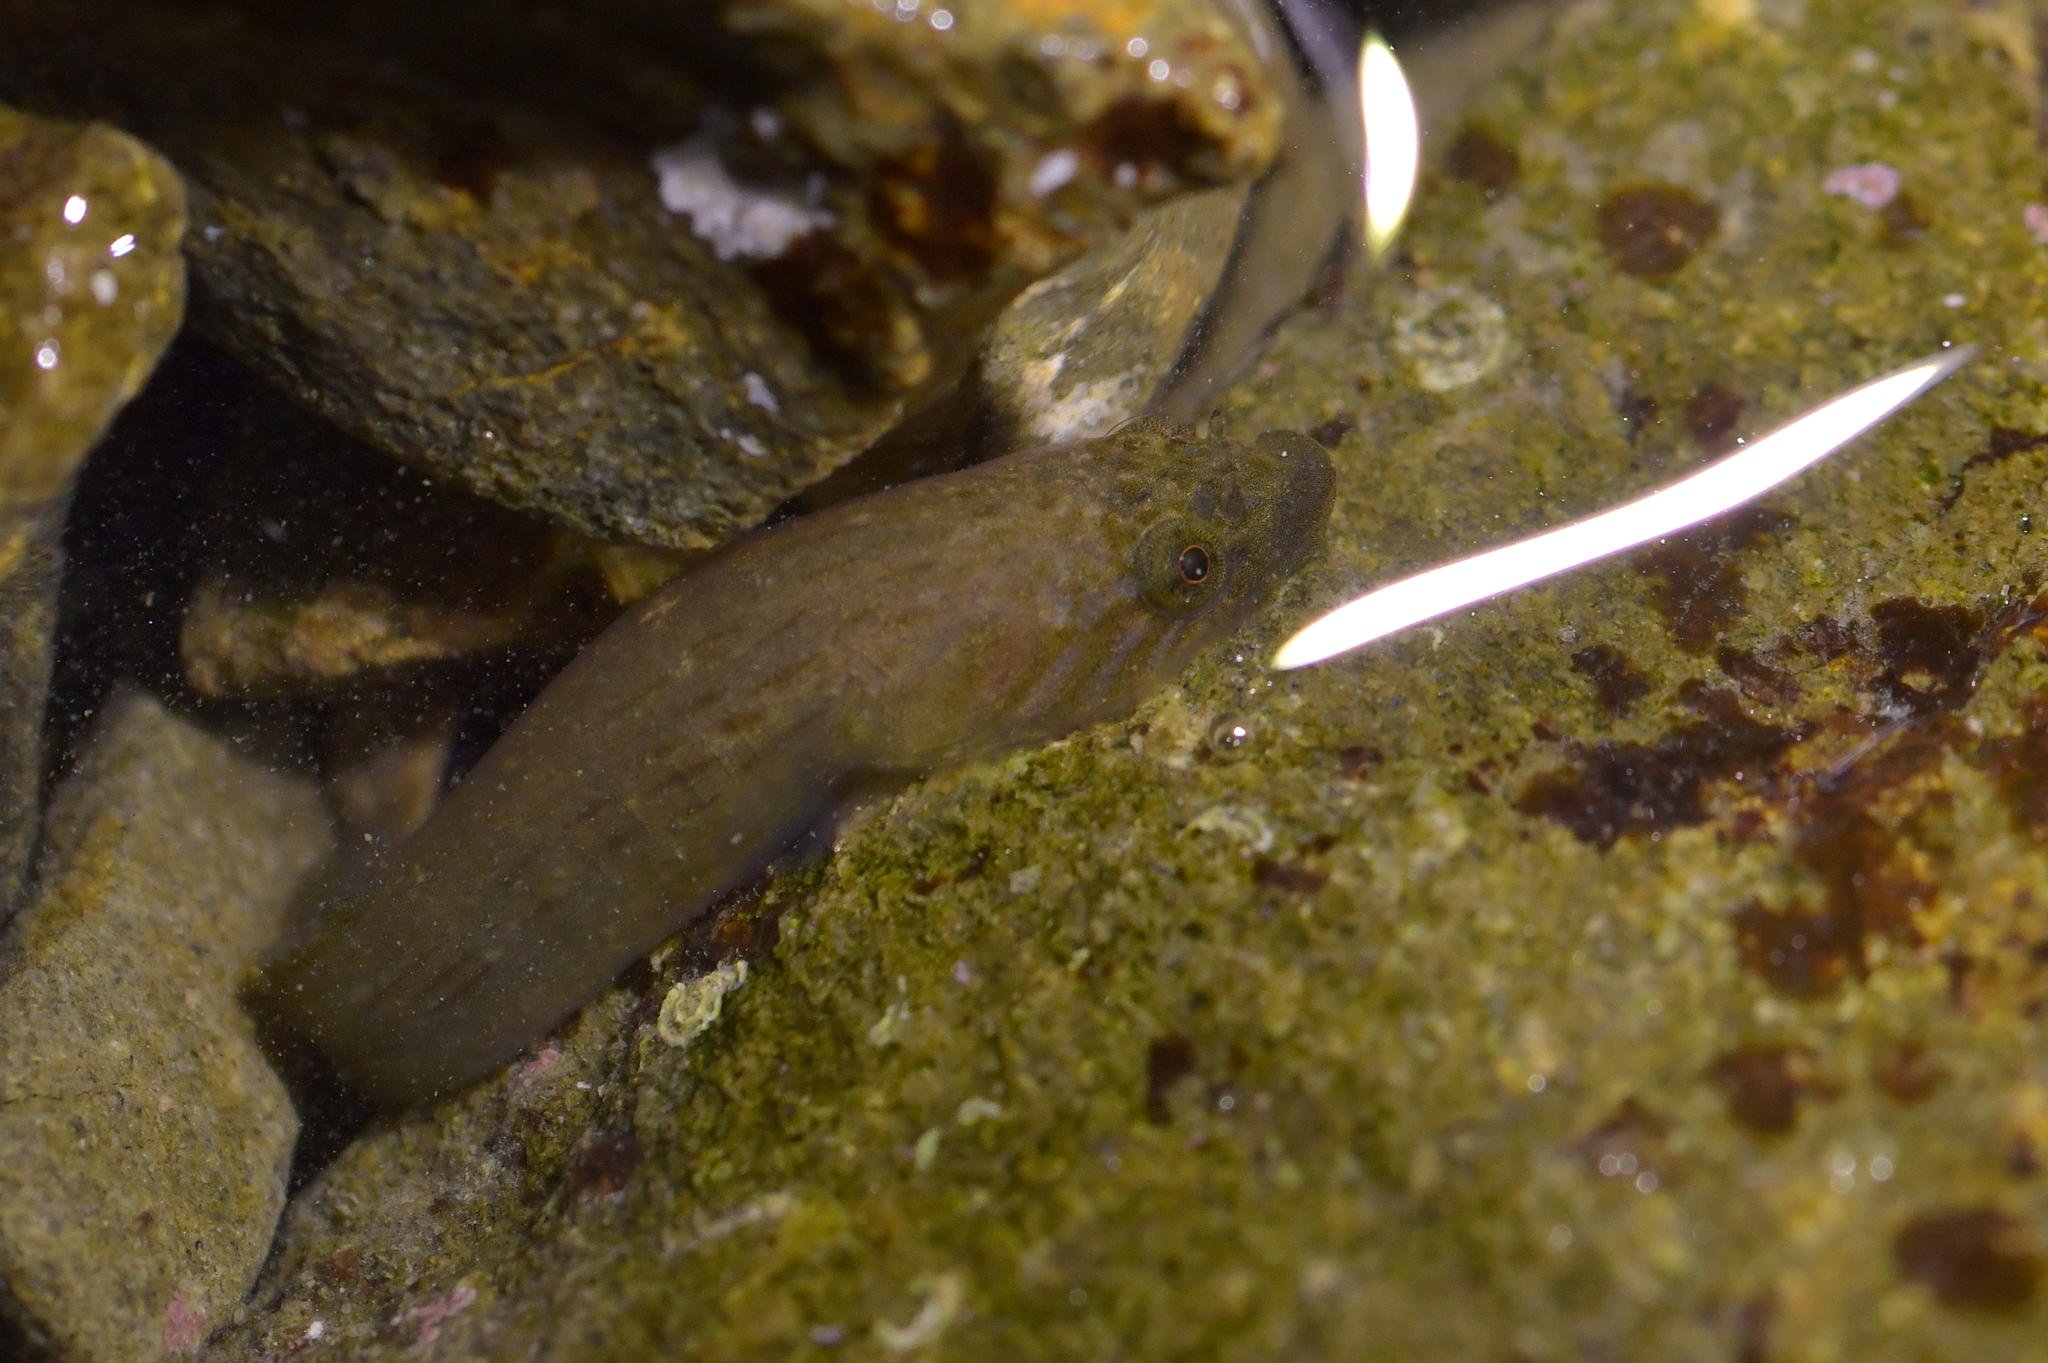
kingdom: Animalia
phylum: Chordata
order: Gobiesociformes
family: Gobiesocidae
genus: Trachelochismus
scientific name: Trachelochismus pinnulatus
